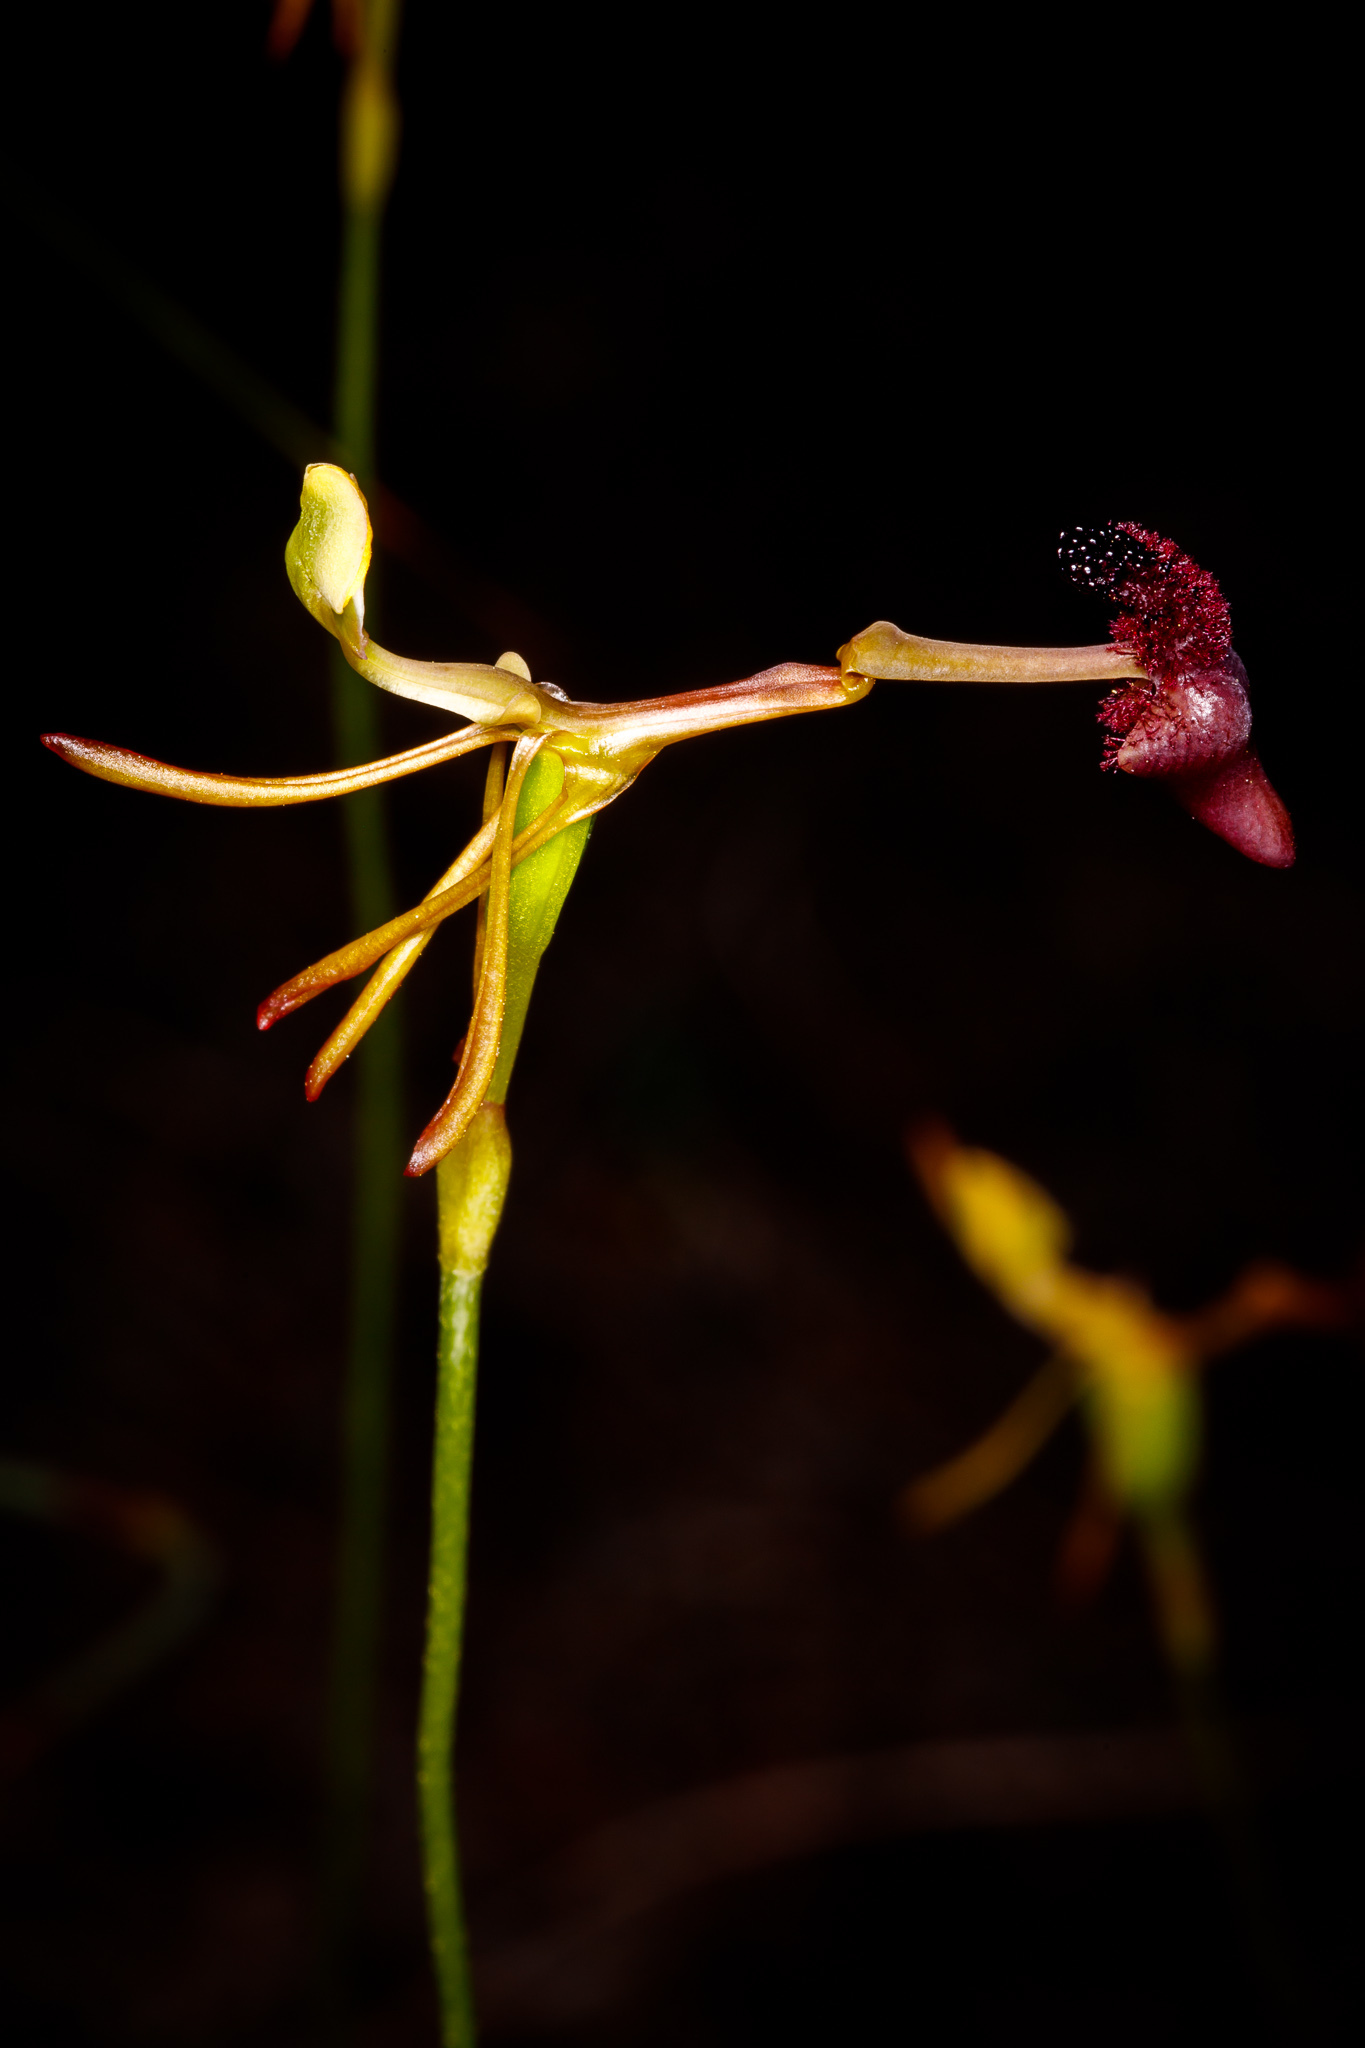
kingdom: Plantae
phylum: Tracheophyta
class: Liliopsida
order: Asparagales
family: Orchidaceae
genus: Drakaea
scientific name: Drakaea concolor
